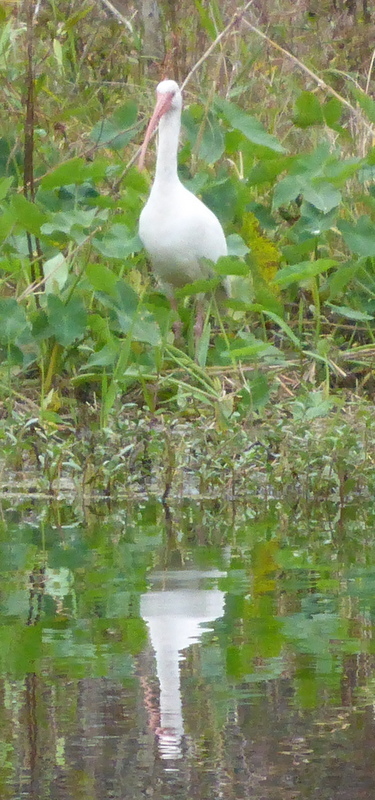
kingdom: Animalia
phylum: Chordata
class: Aves
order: Pelecaniformes
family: Threskiornithidae
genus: Eudocimus
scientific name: Eudocimus albus
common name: White ibis
